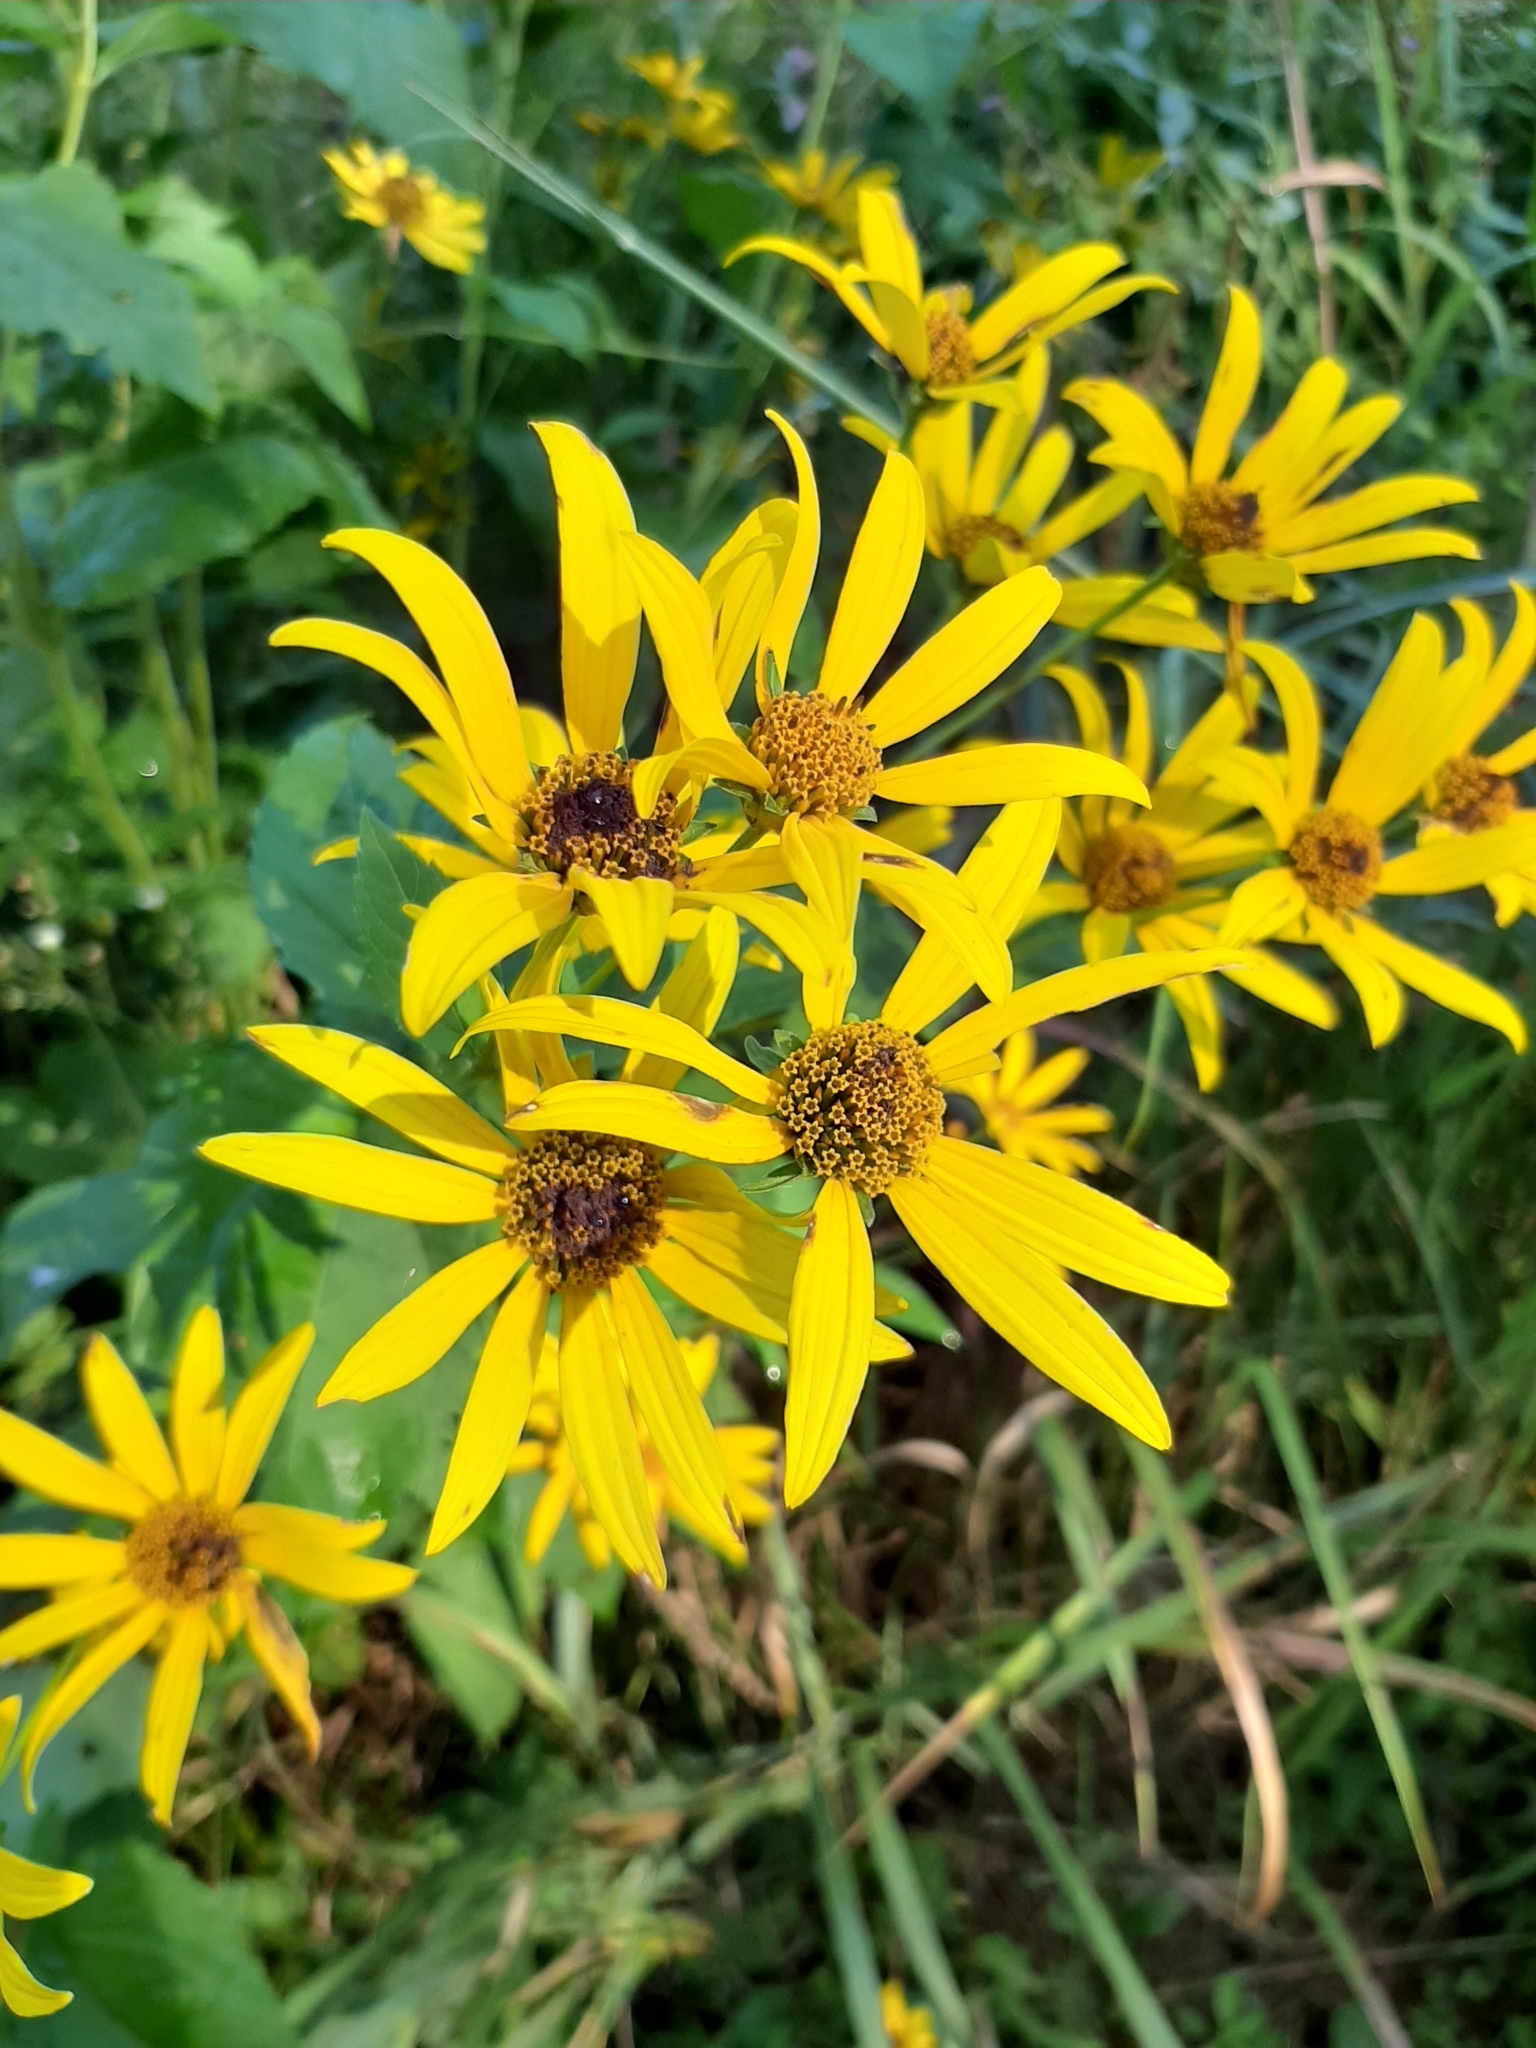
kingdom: Plantae
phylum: Tracheophyta
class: Magnoliopsida
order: Asterales
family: Asteraceae
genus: Heliopsis
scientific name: Heliopsis helianthoides
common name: False sunflower
